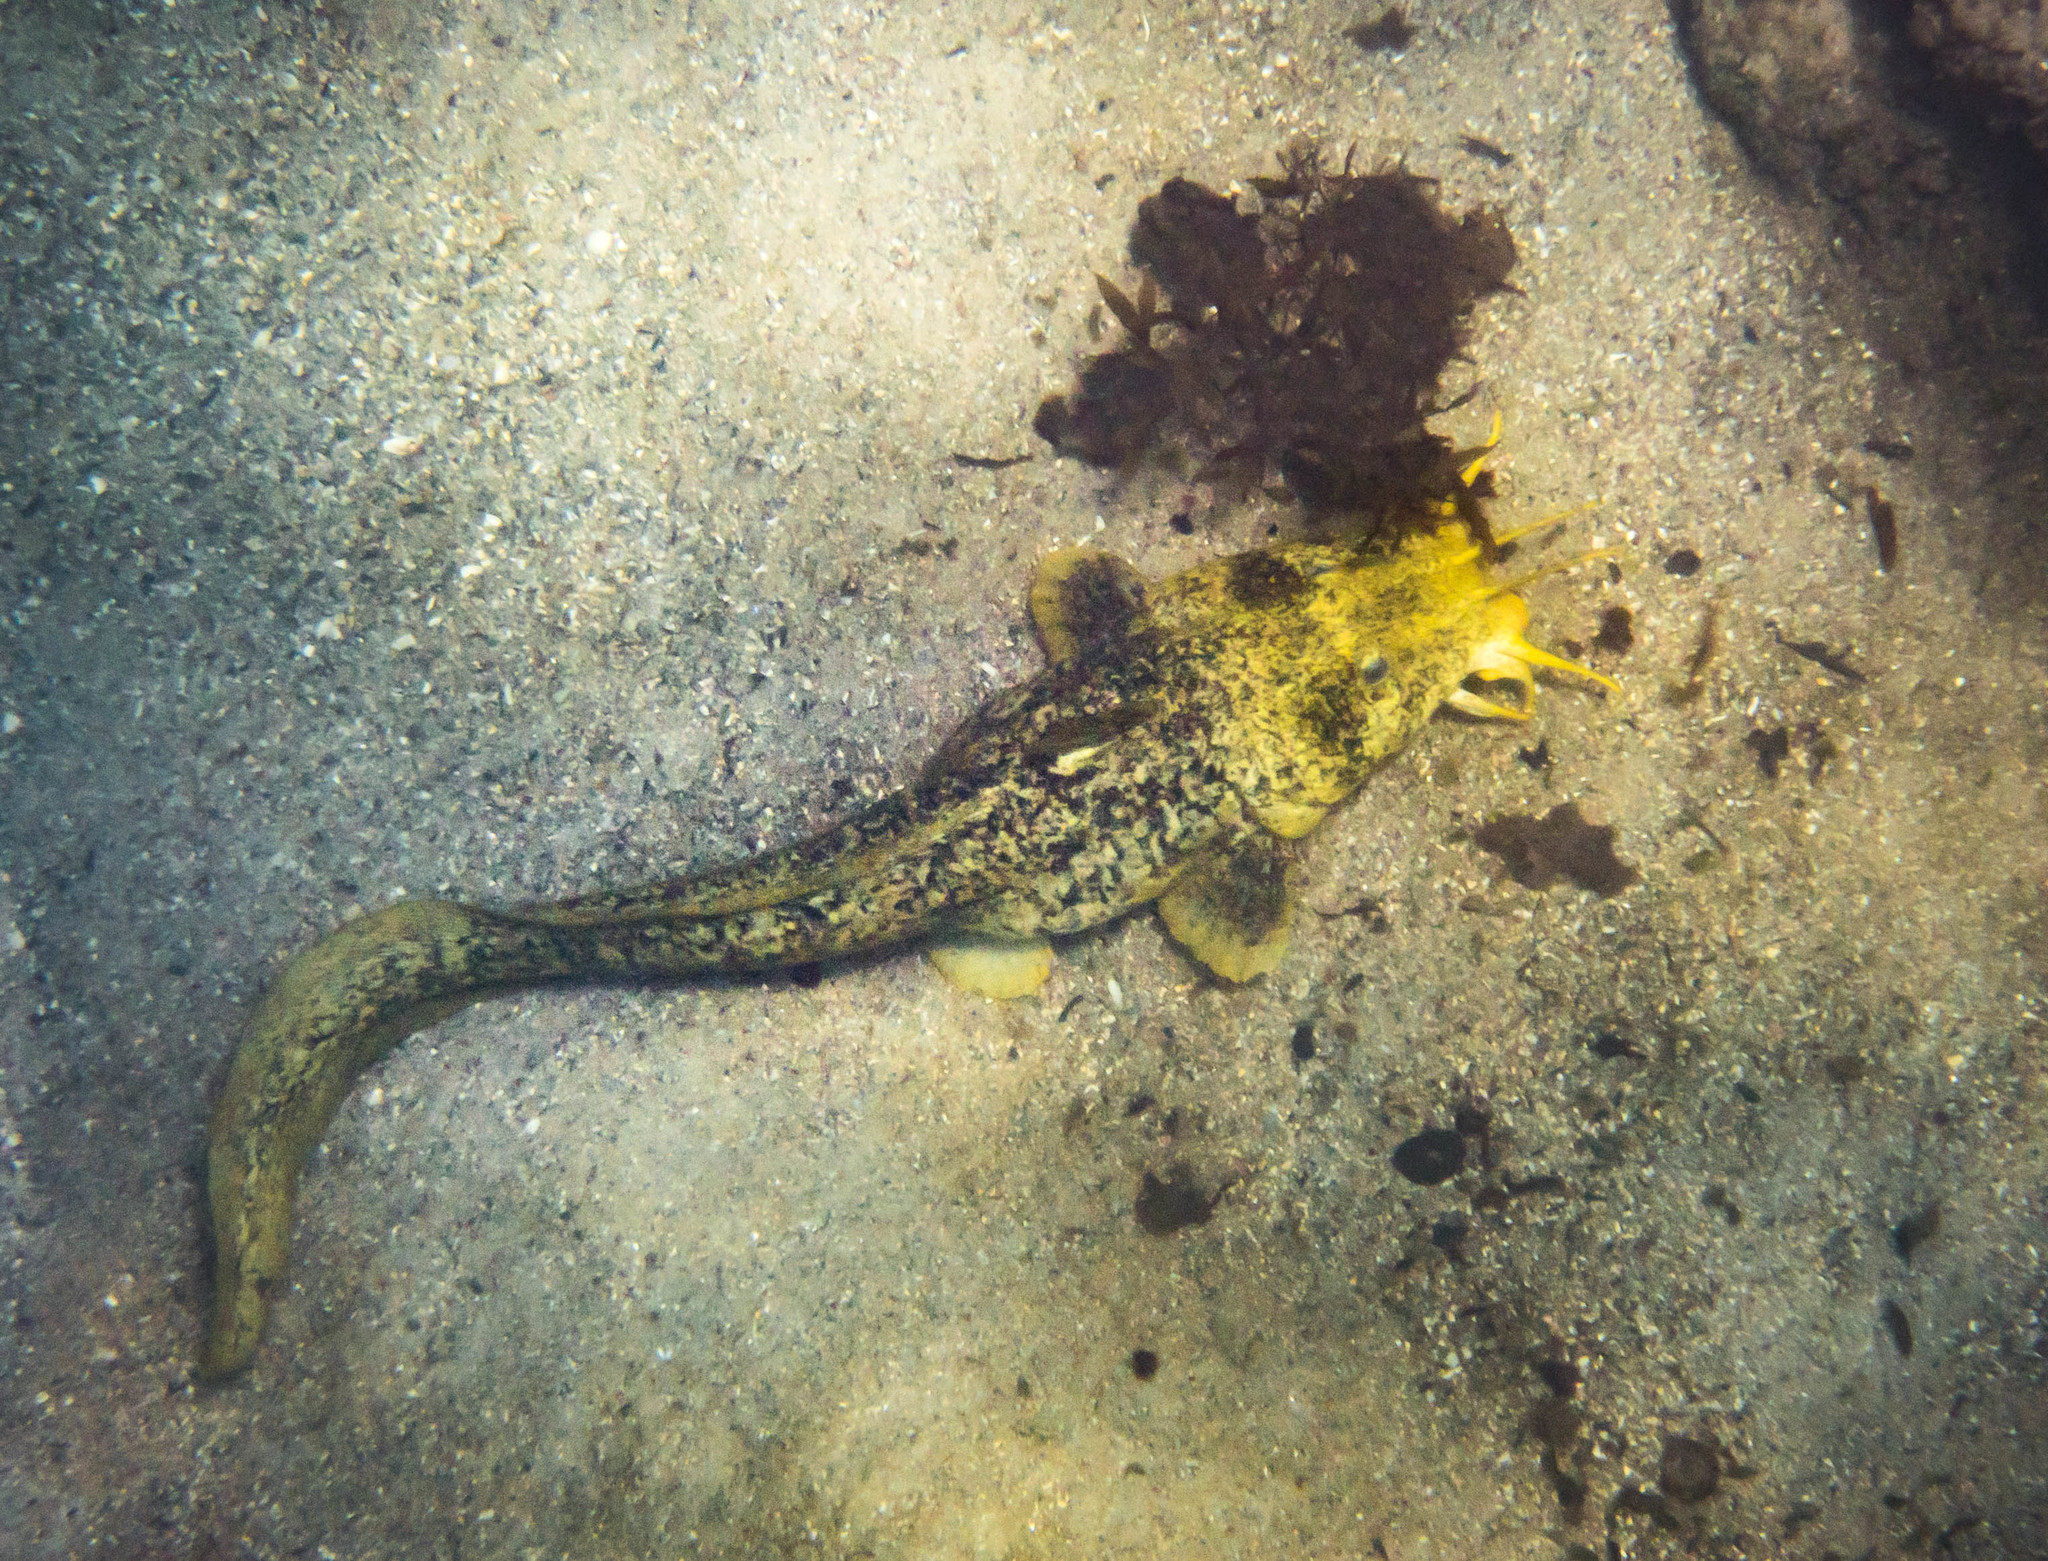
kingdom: Animalia
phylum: Chordata
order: Siluriformes
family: Plotosidae
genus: Cnidoglanis
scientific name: Cnidoglanis macrocephalus
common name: Cobbler
